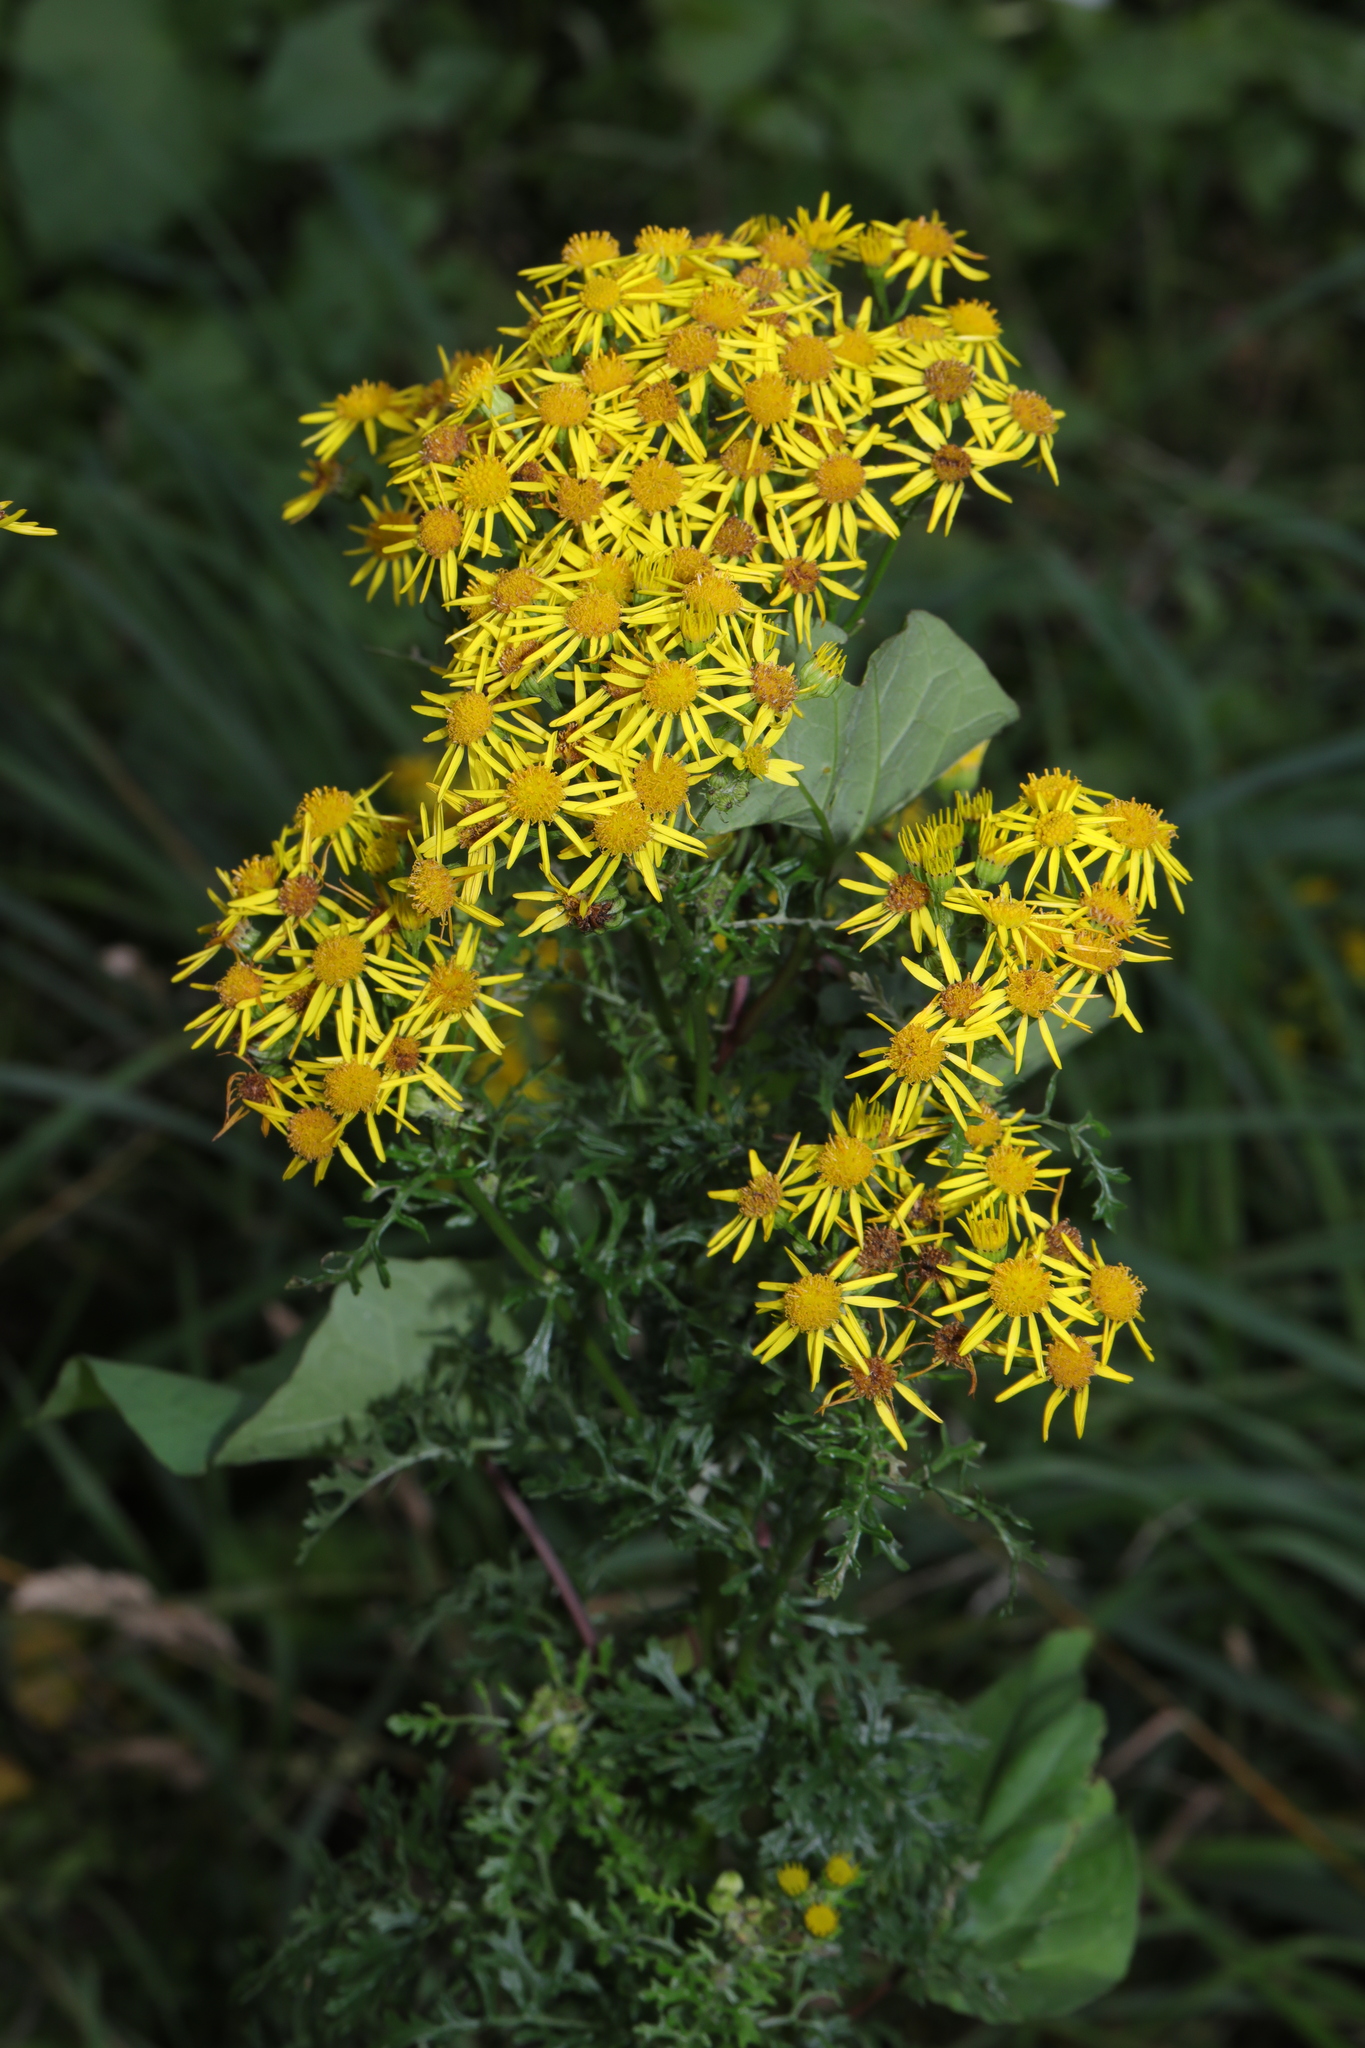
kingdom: Plantae
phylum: Tracheophyta
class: Magnoliopsida
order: Asterales
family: Asteraceae
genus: Jacobaea
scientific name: Jacobaea vulgaris
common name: Stinking willie
